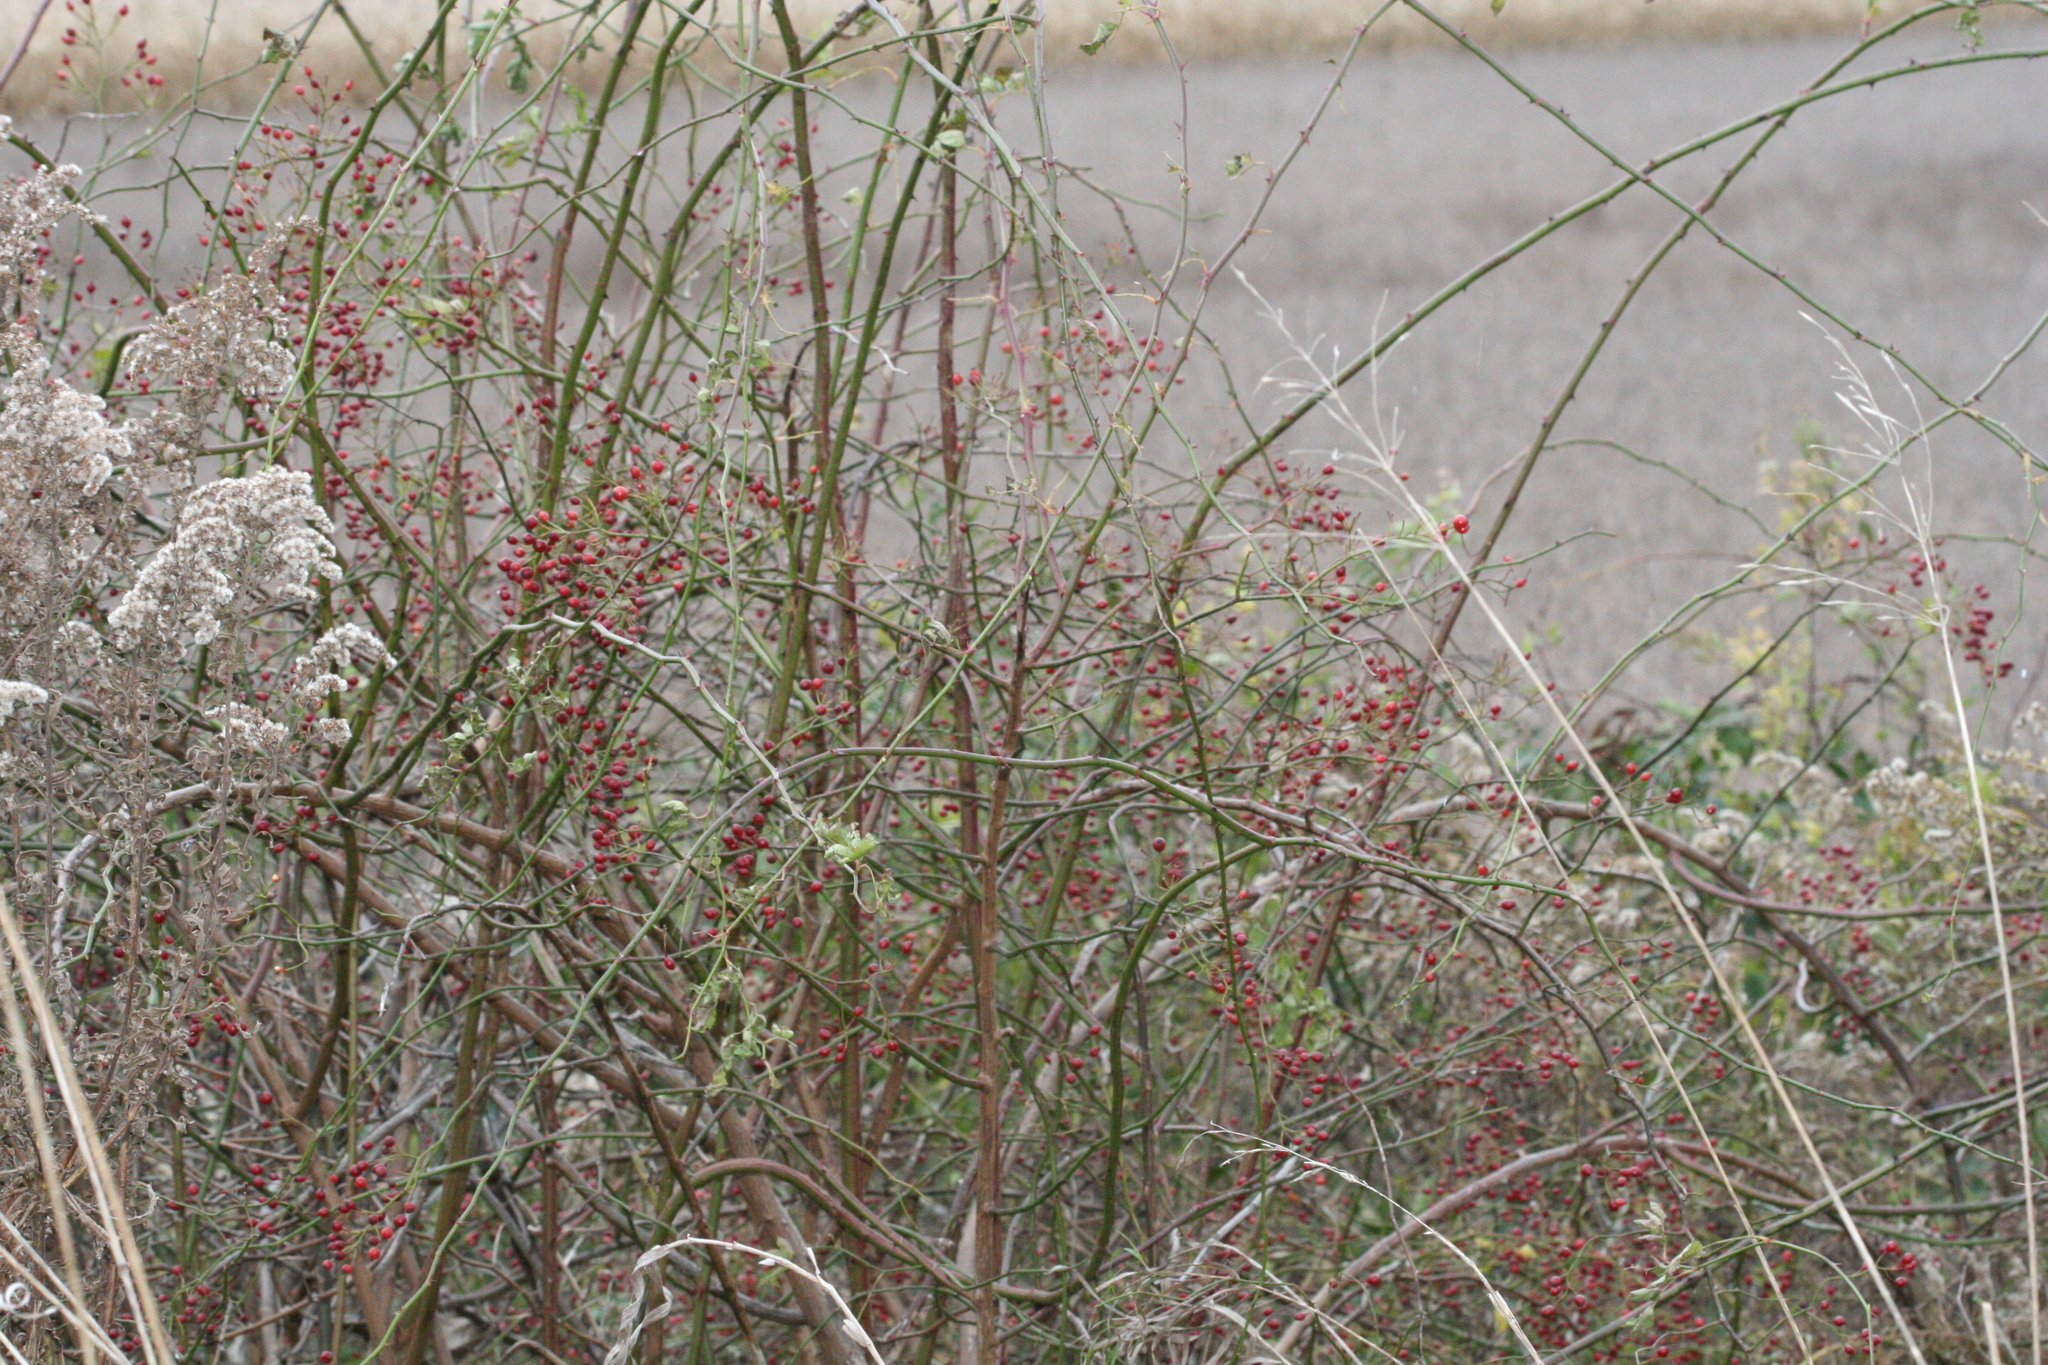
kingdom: Plantae
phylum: Tracheophyta
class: Magnoliopsida
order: Rosales
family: Rosaceae
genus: Rosa
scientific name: Rosa multiflora
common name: Multiflora rose
